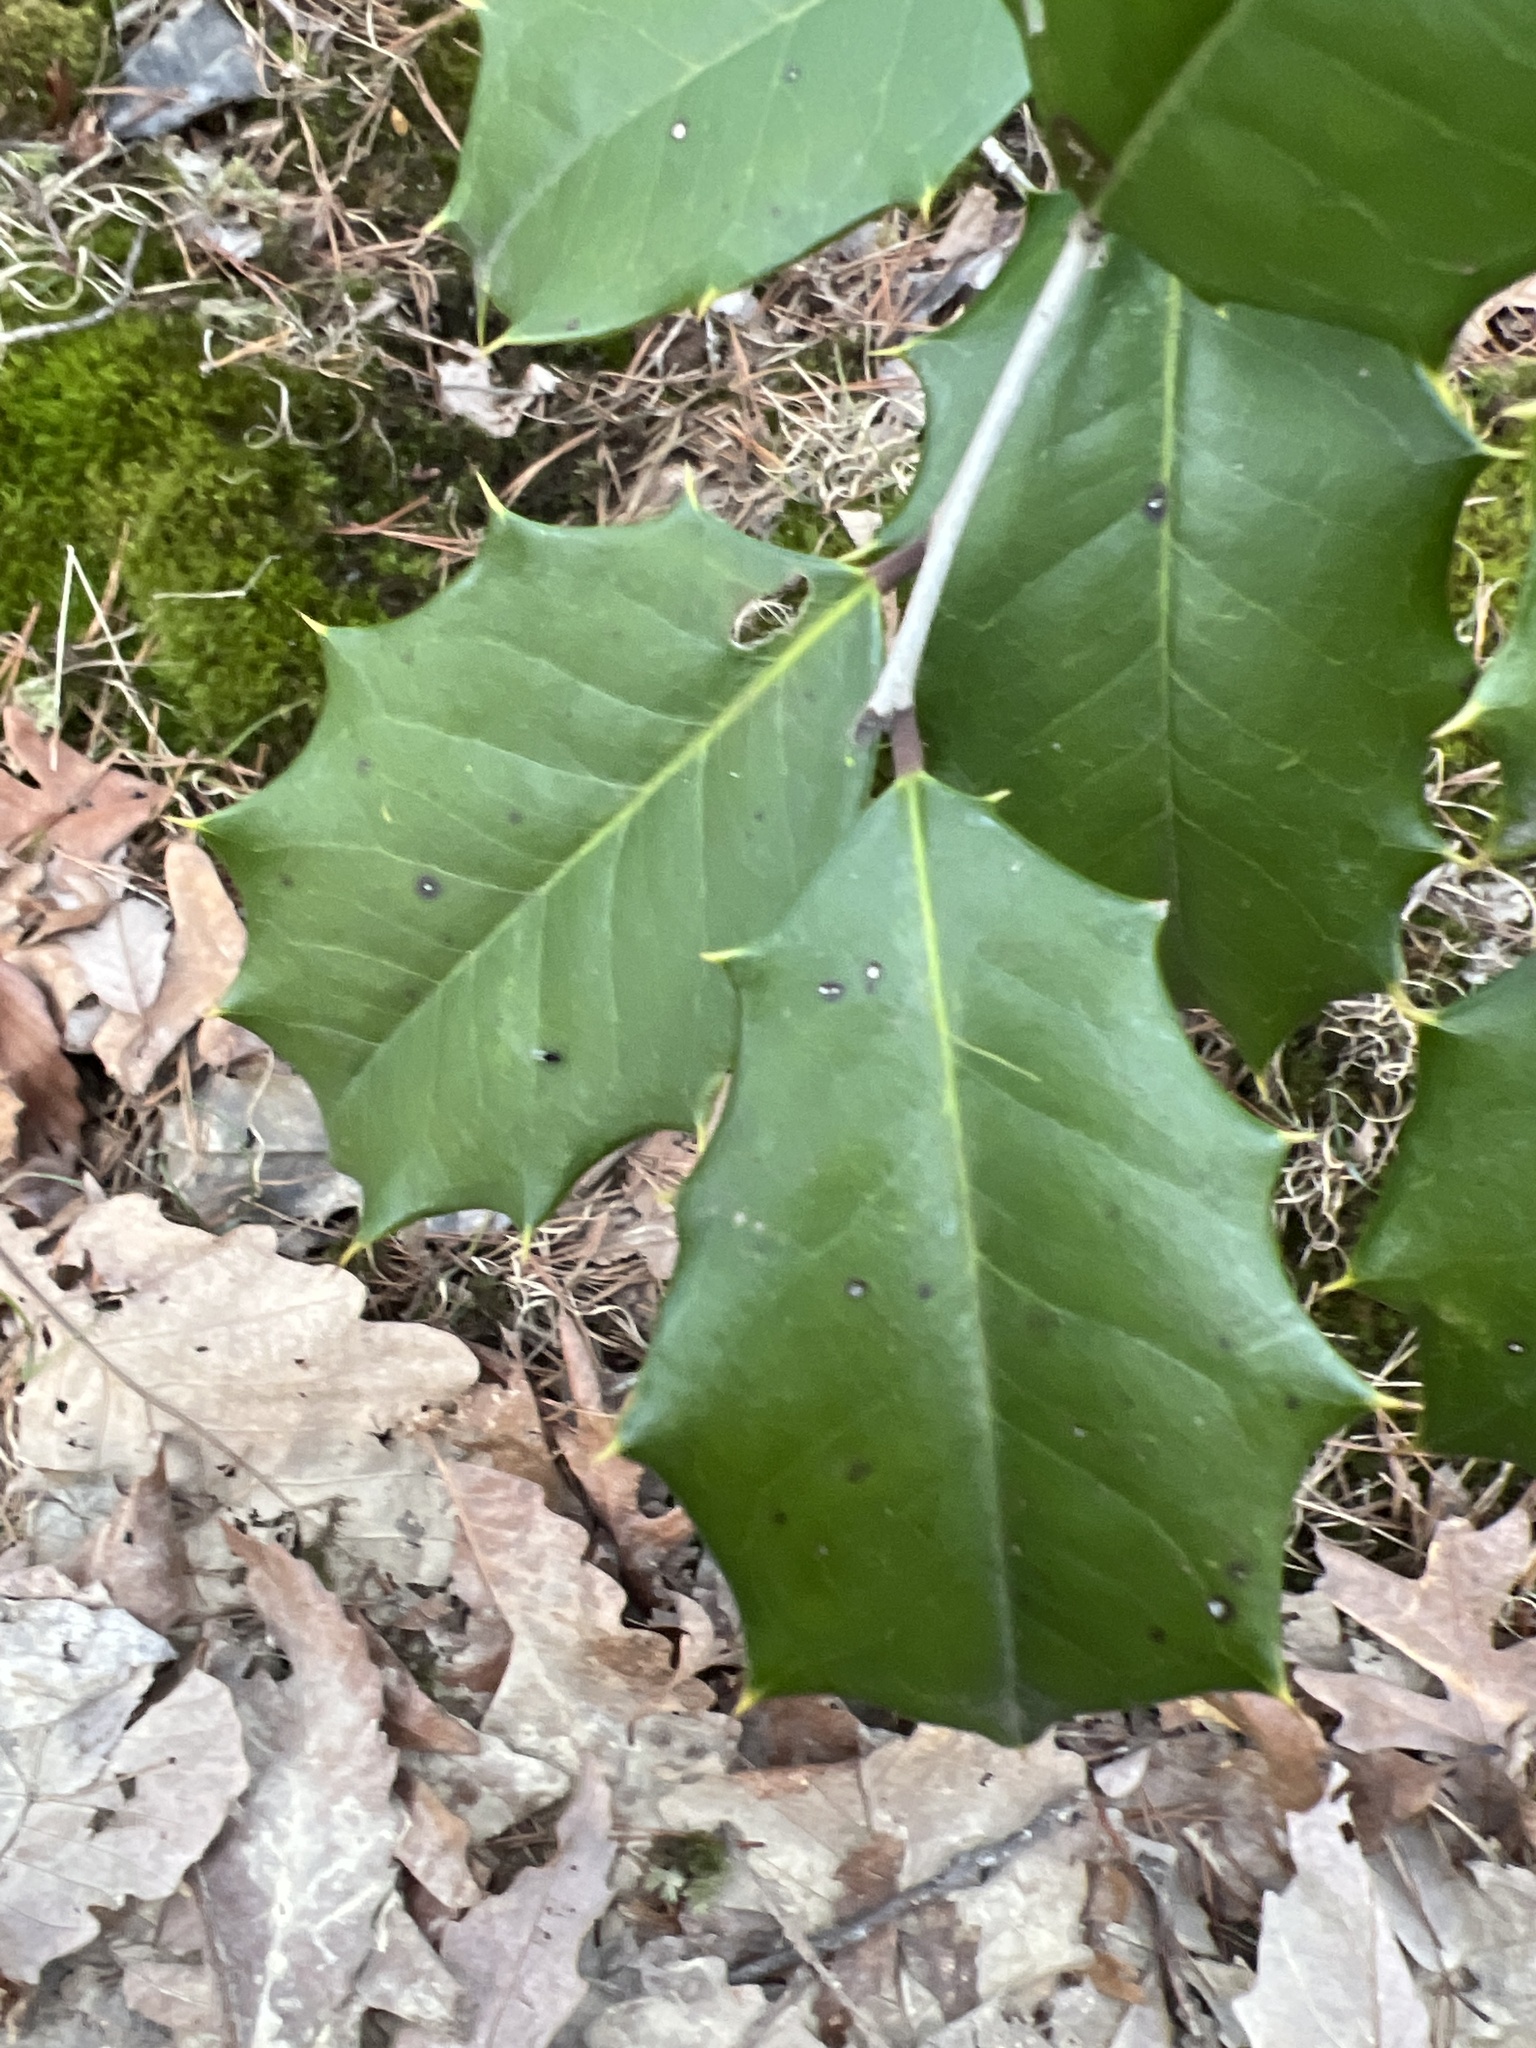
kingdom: Plantae
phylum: Tracheophyta
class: Magnoliopsida
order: Aquifoliales
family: Aquifoliaceae
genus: Ilex
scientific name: Ilex opaca
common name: American holly
